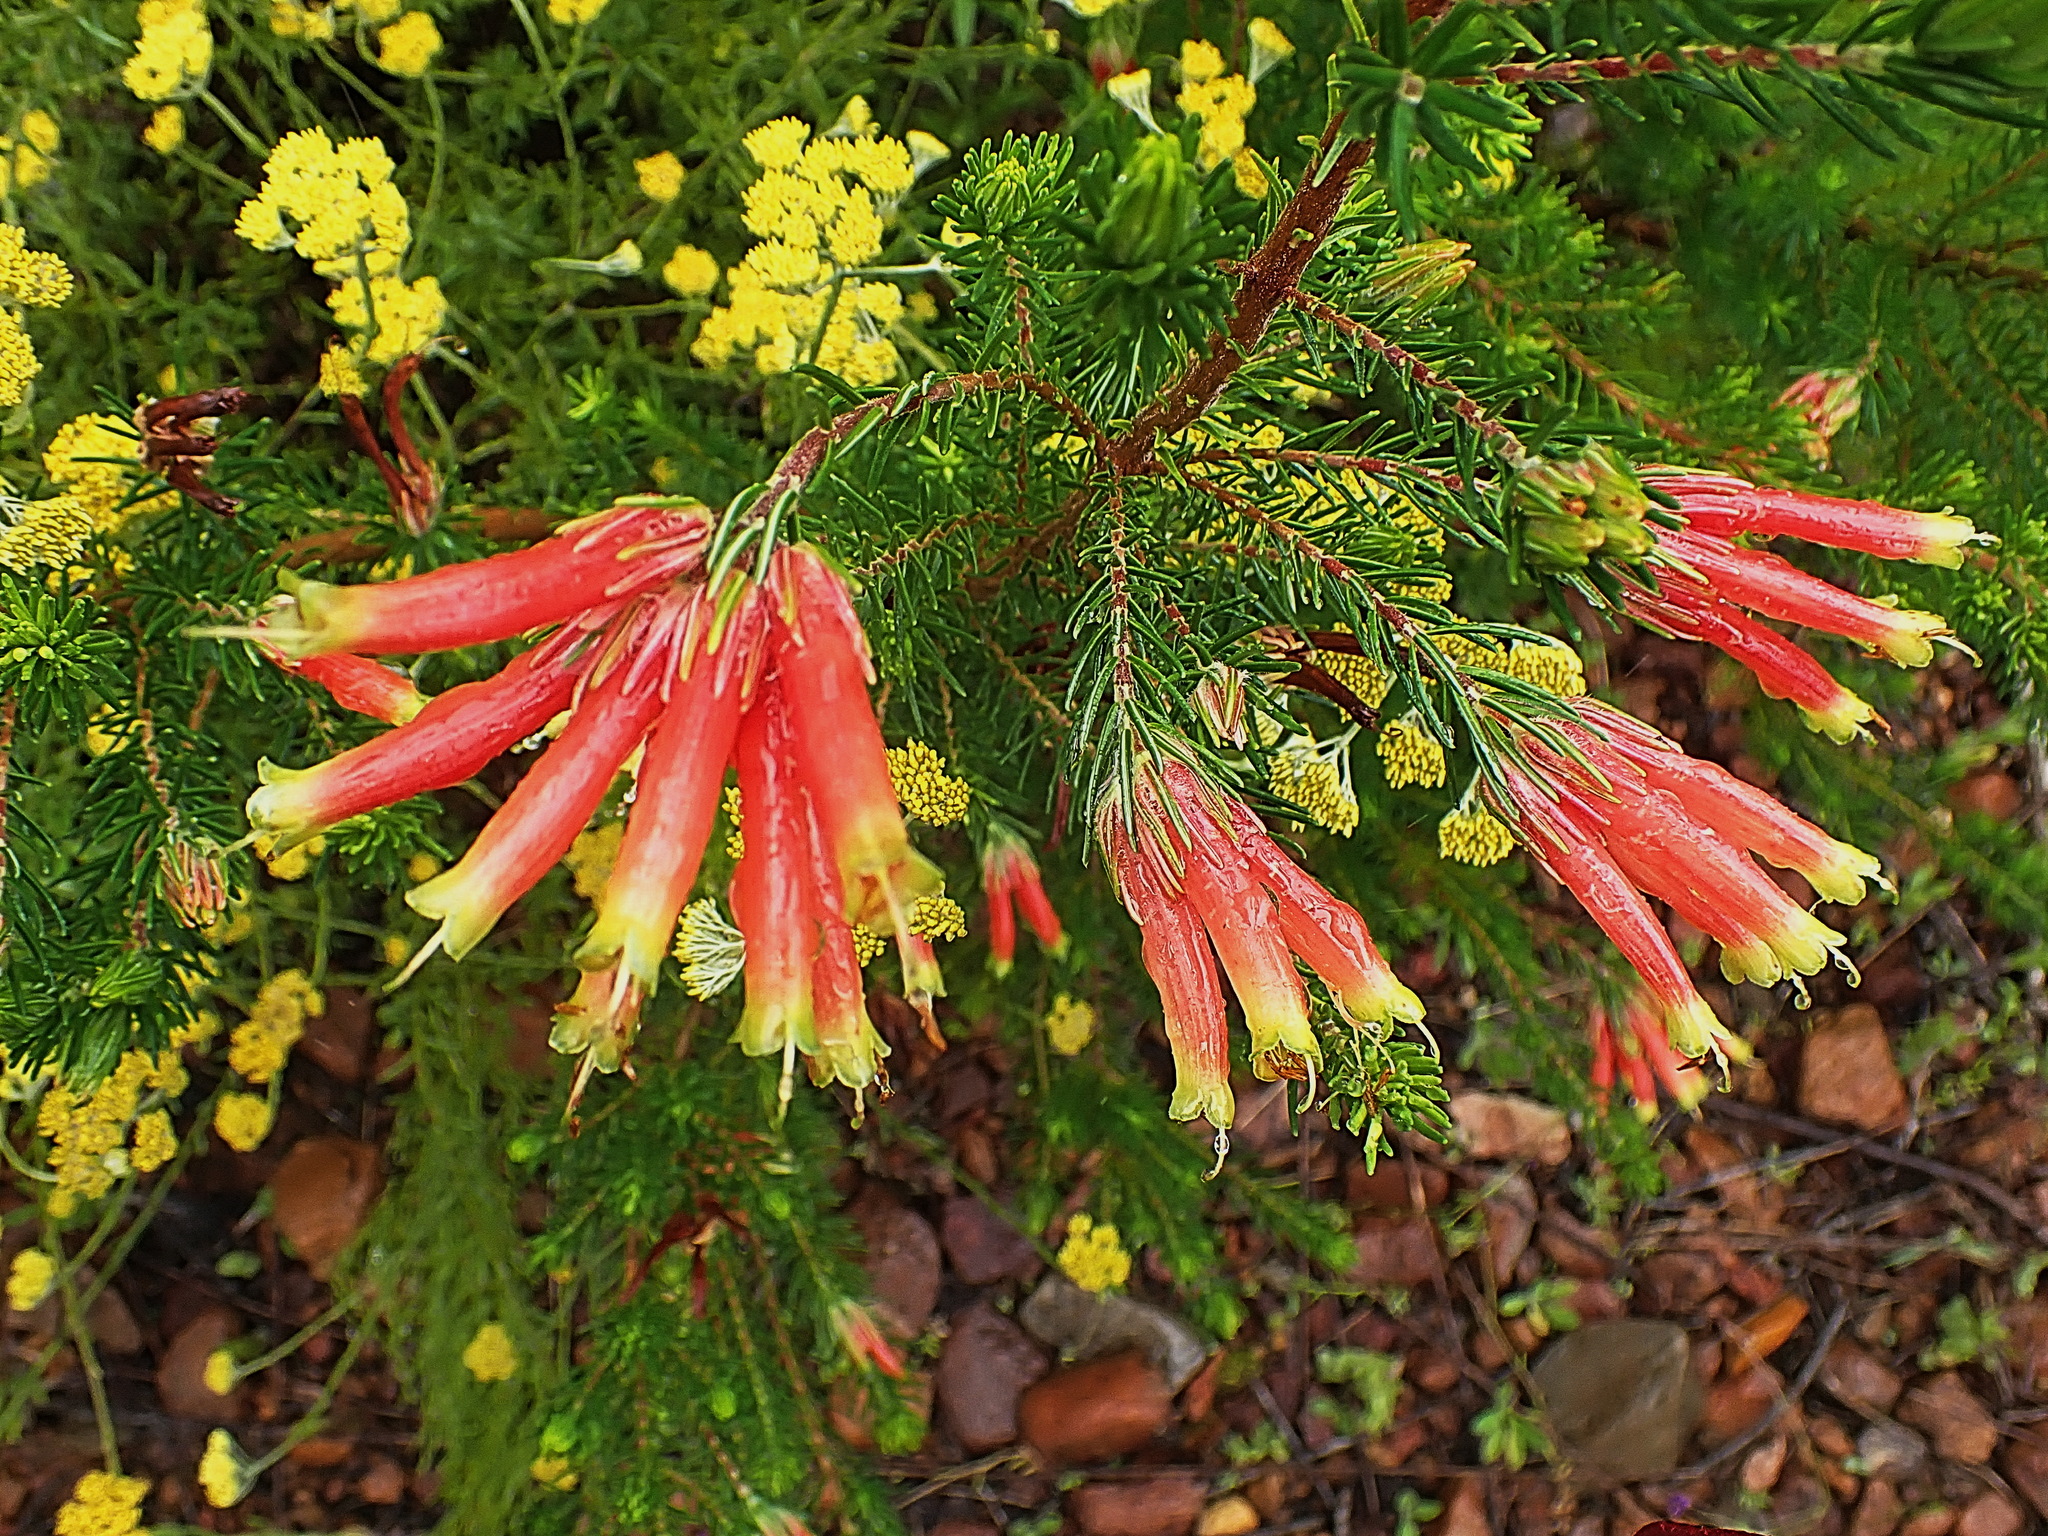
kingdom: Plantae
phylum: Tracheophyta
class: Magnoliopsida
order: Ericales
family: Ericaceae
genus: Erica
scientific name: Erica unicolor
